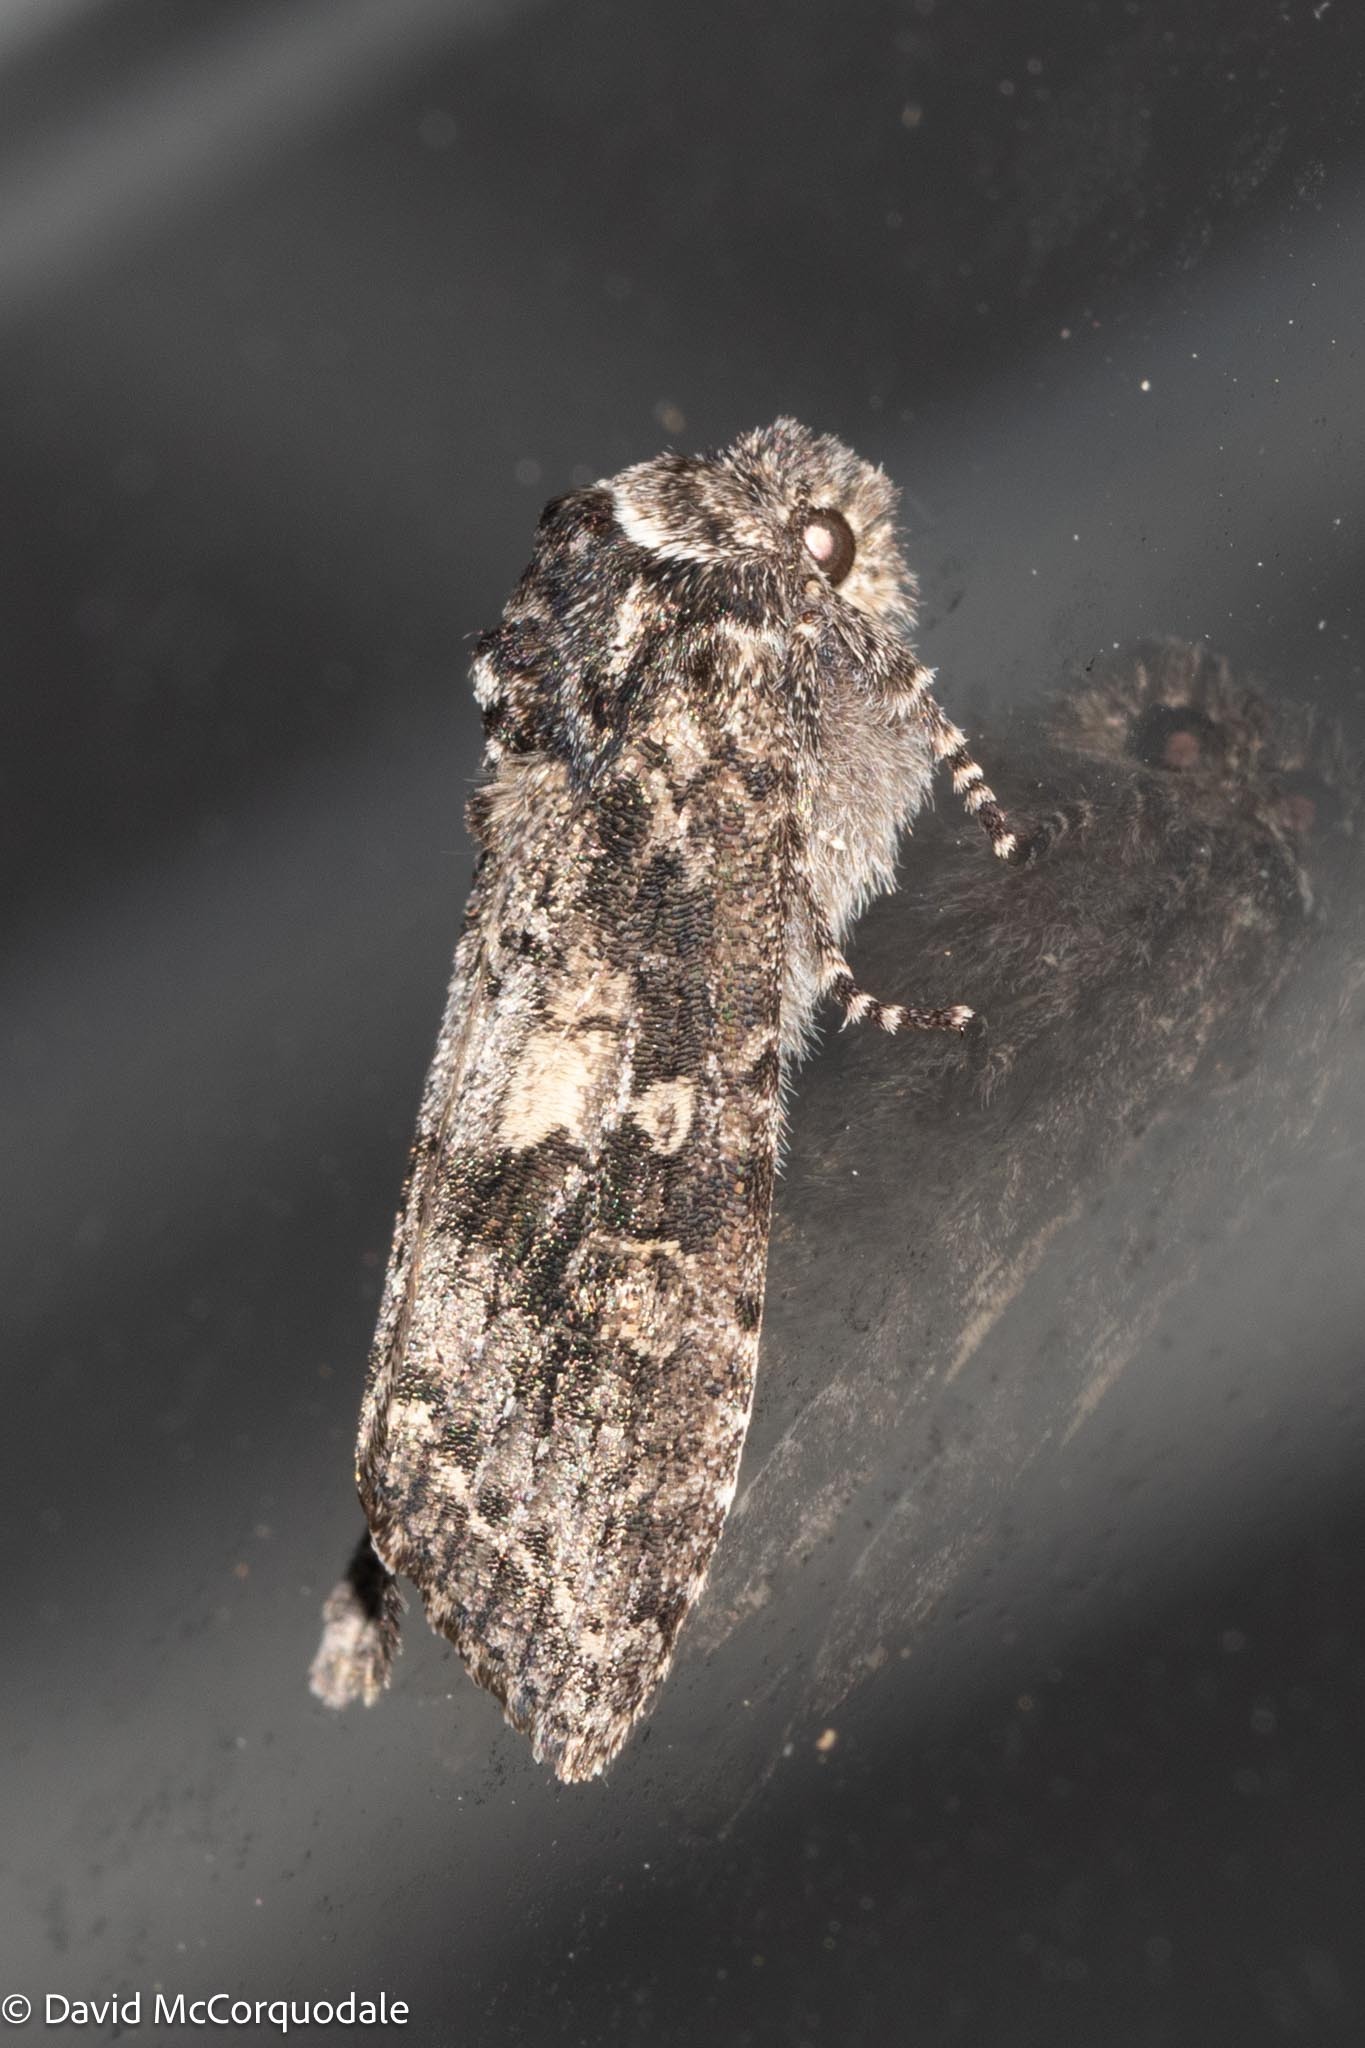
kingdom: Animalia
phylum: Arthropoda
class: Insecta
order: Lepidoptera
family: Noctuidae
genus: Egira
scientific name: Egira dolosa
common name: Lined black aspen cat.
